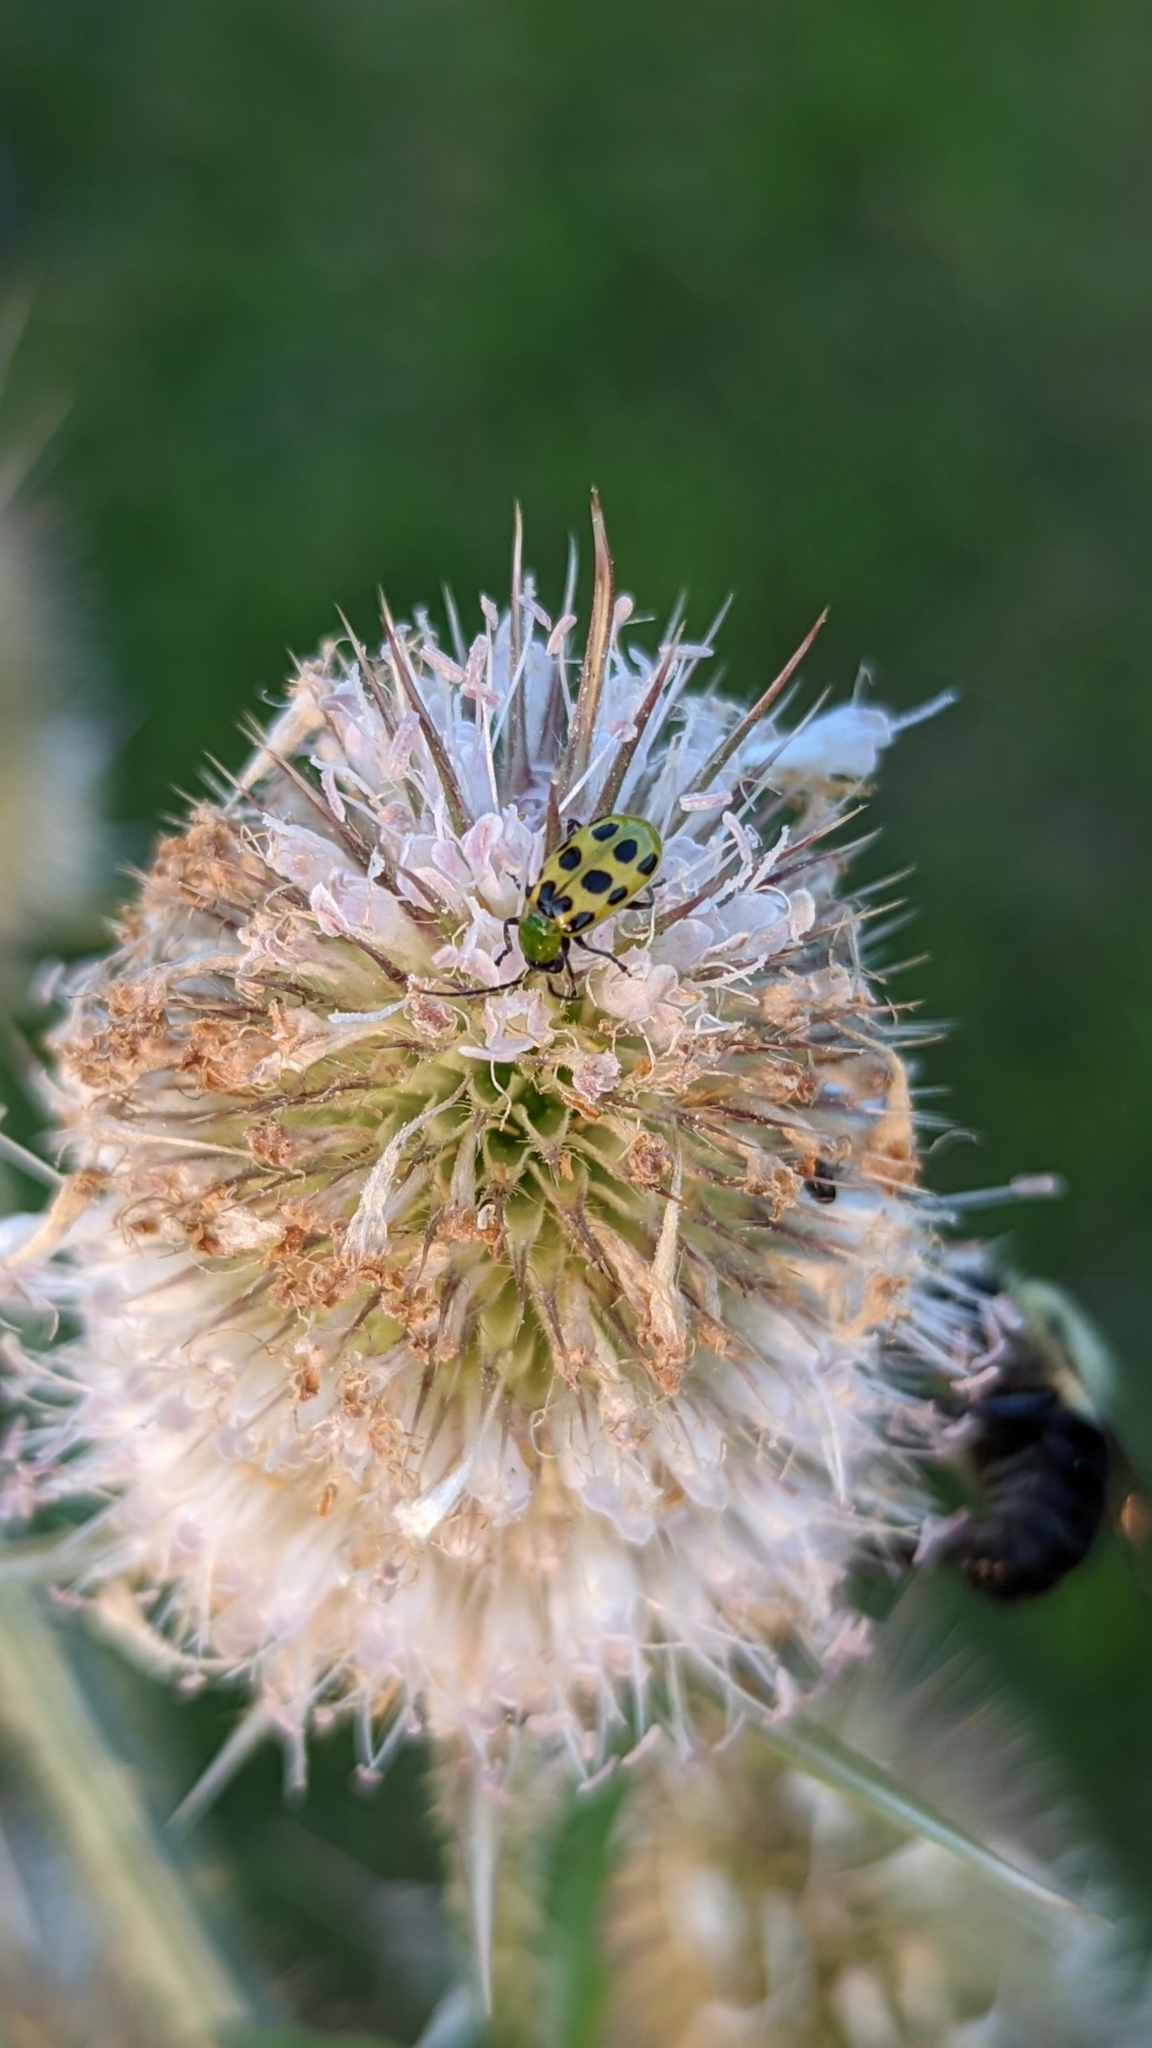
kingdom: Animalia
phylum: Arthropoda
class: Insecta
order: Coleoptera
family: Chrysomelidae
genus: Diabrotica
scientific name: Diabrotica undecimpunctata
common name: Spotted cucumber beetle
